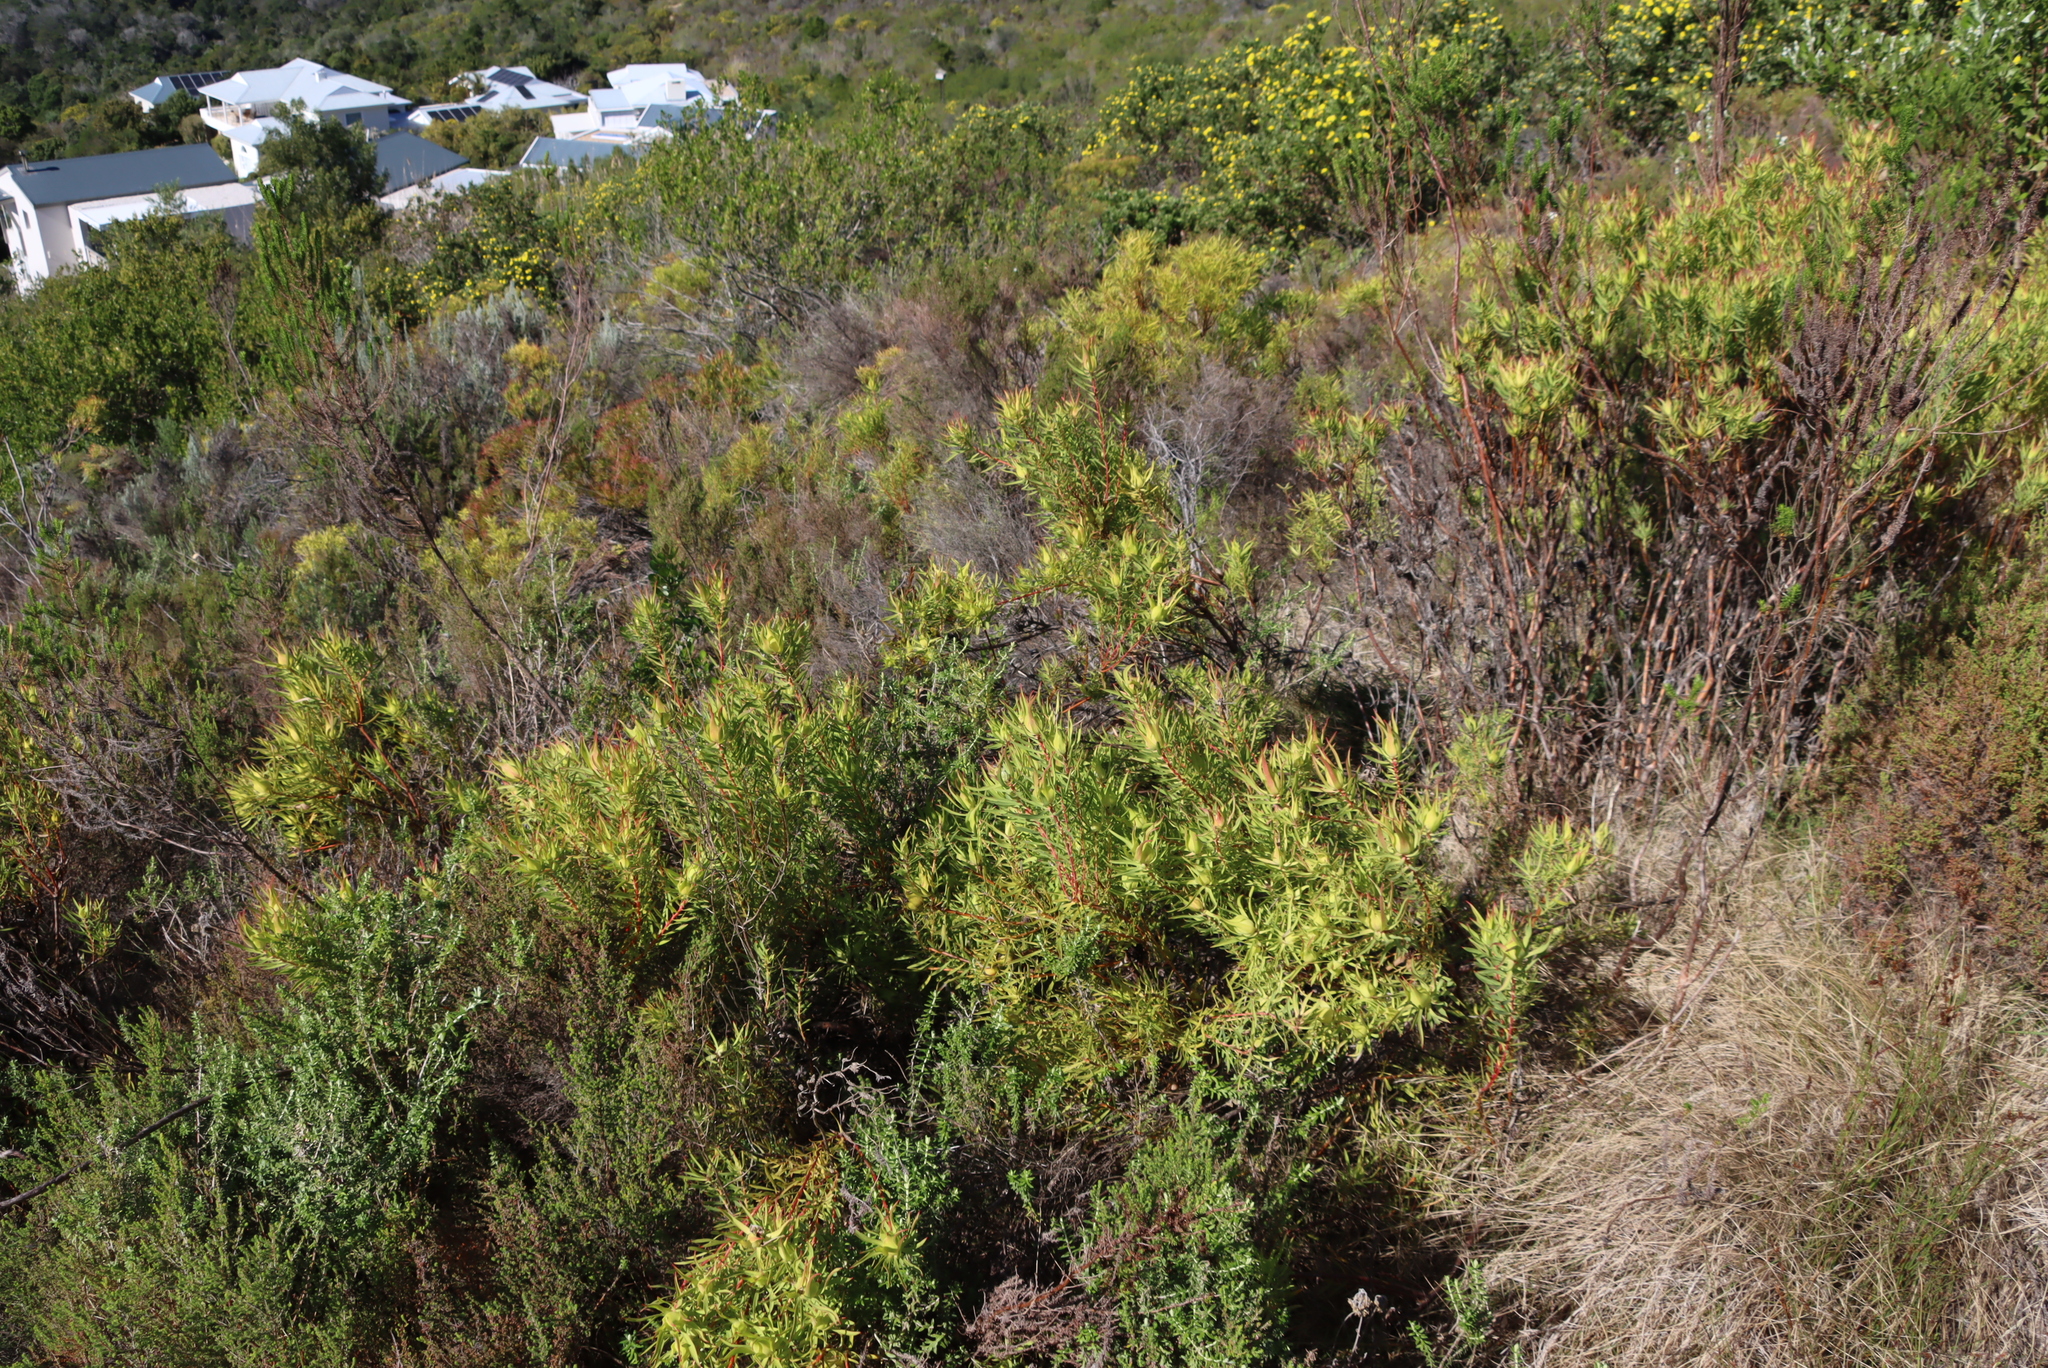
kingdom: Plantae
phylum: Tracheophyta
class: Magnoliopsida
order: Proteales
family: Proteaceae
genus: Leucadendron
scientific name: Leucadendron salignum
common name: Common sunshine conebush
